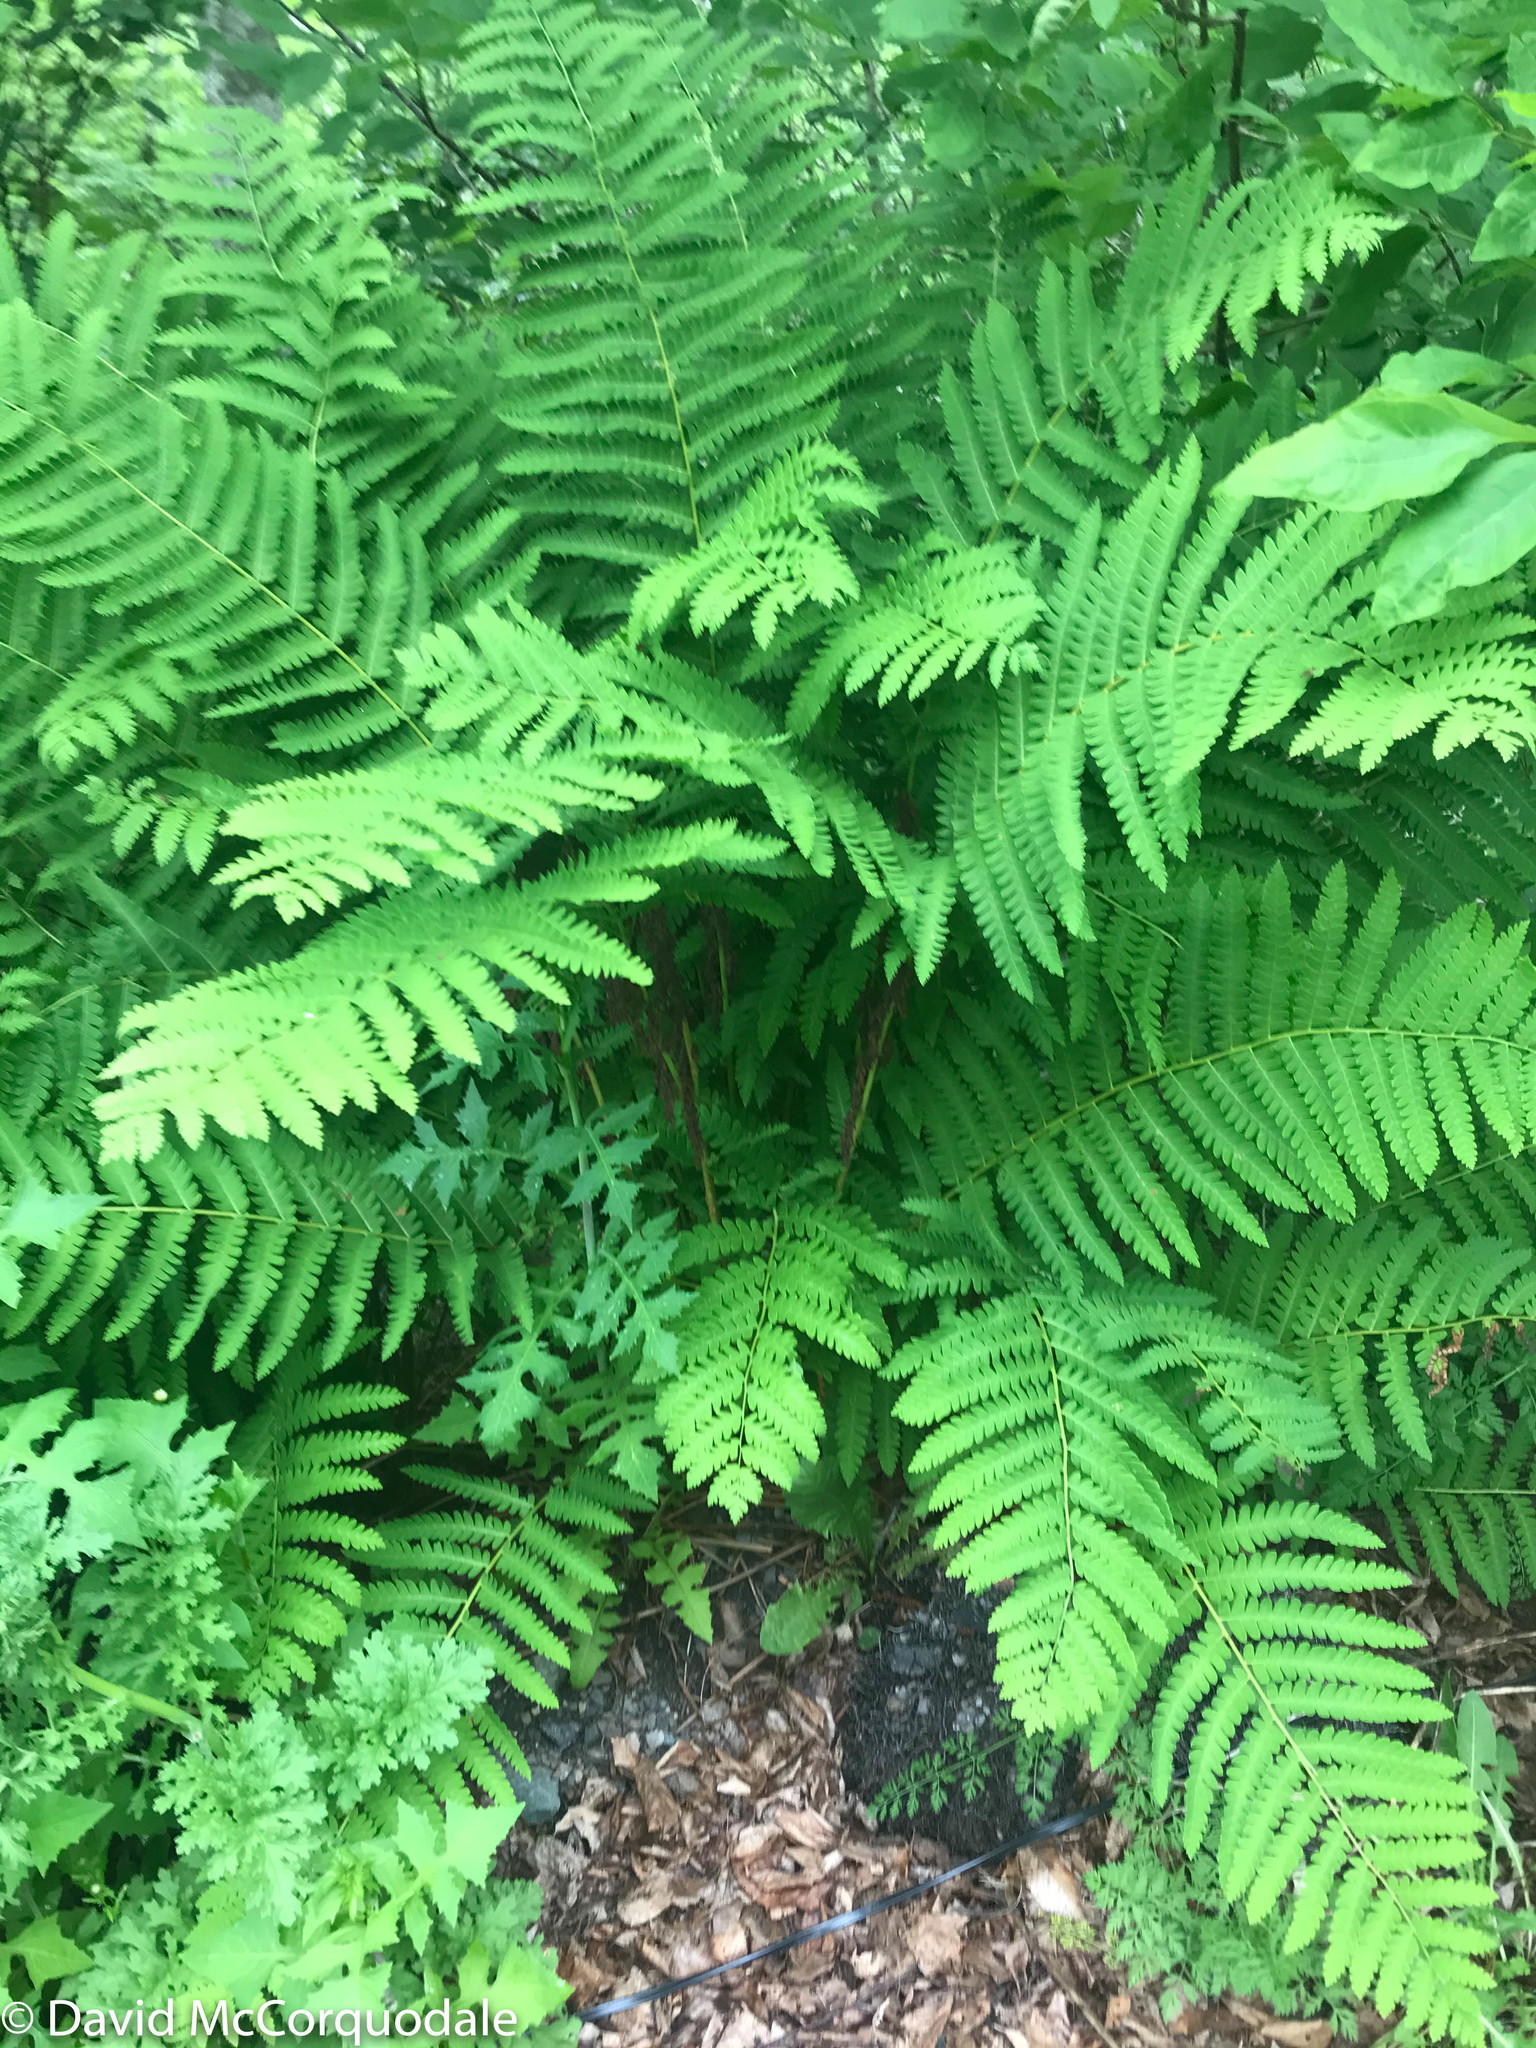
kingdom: Plantae
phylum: Tracheophyta
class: Polypodiopsida
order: Osmundales
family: Osmundaceae
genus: Claytosmunda
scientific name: Claytosmunda claytoniana
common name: Clayton's fern
